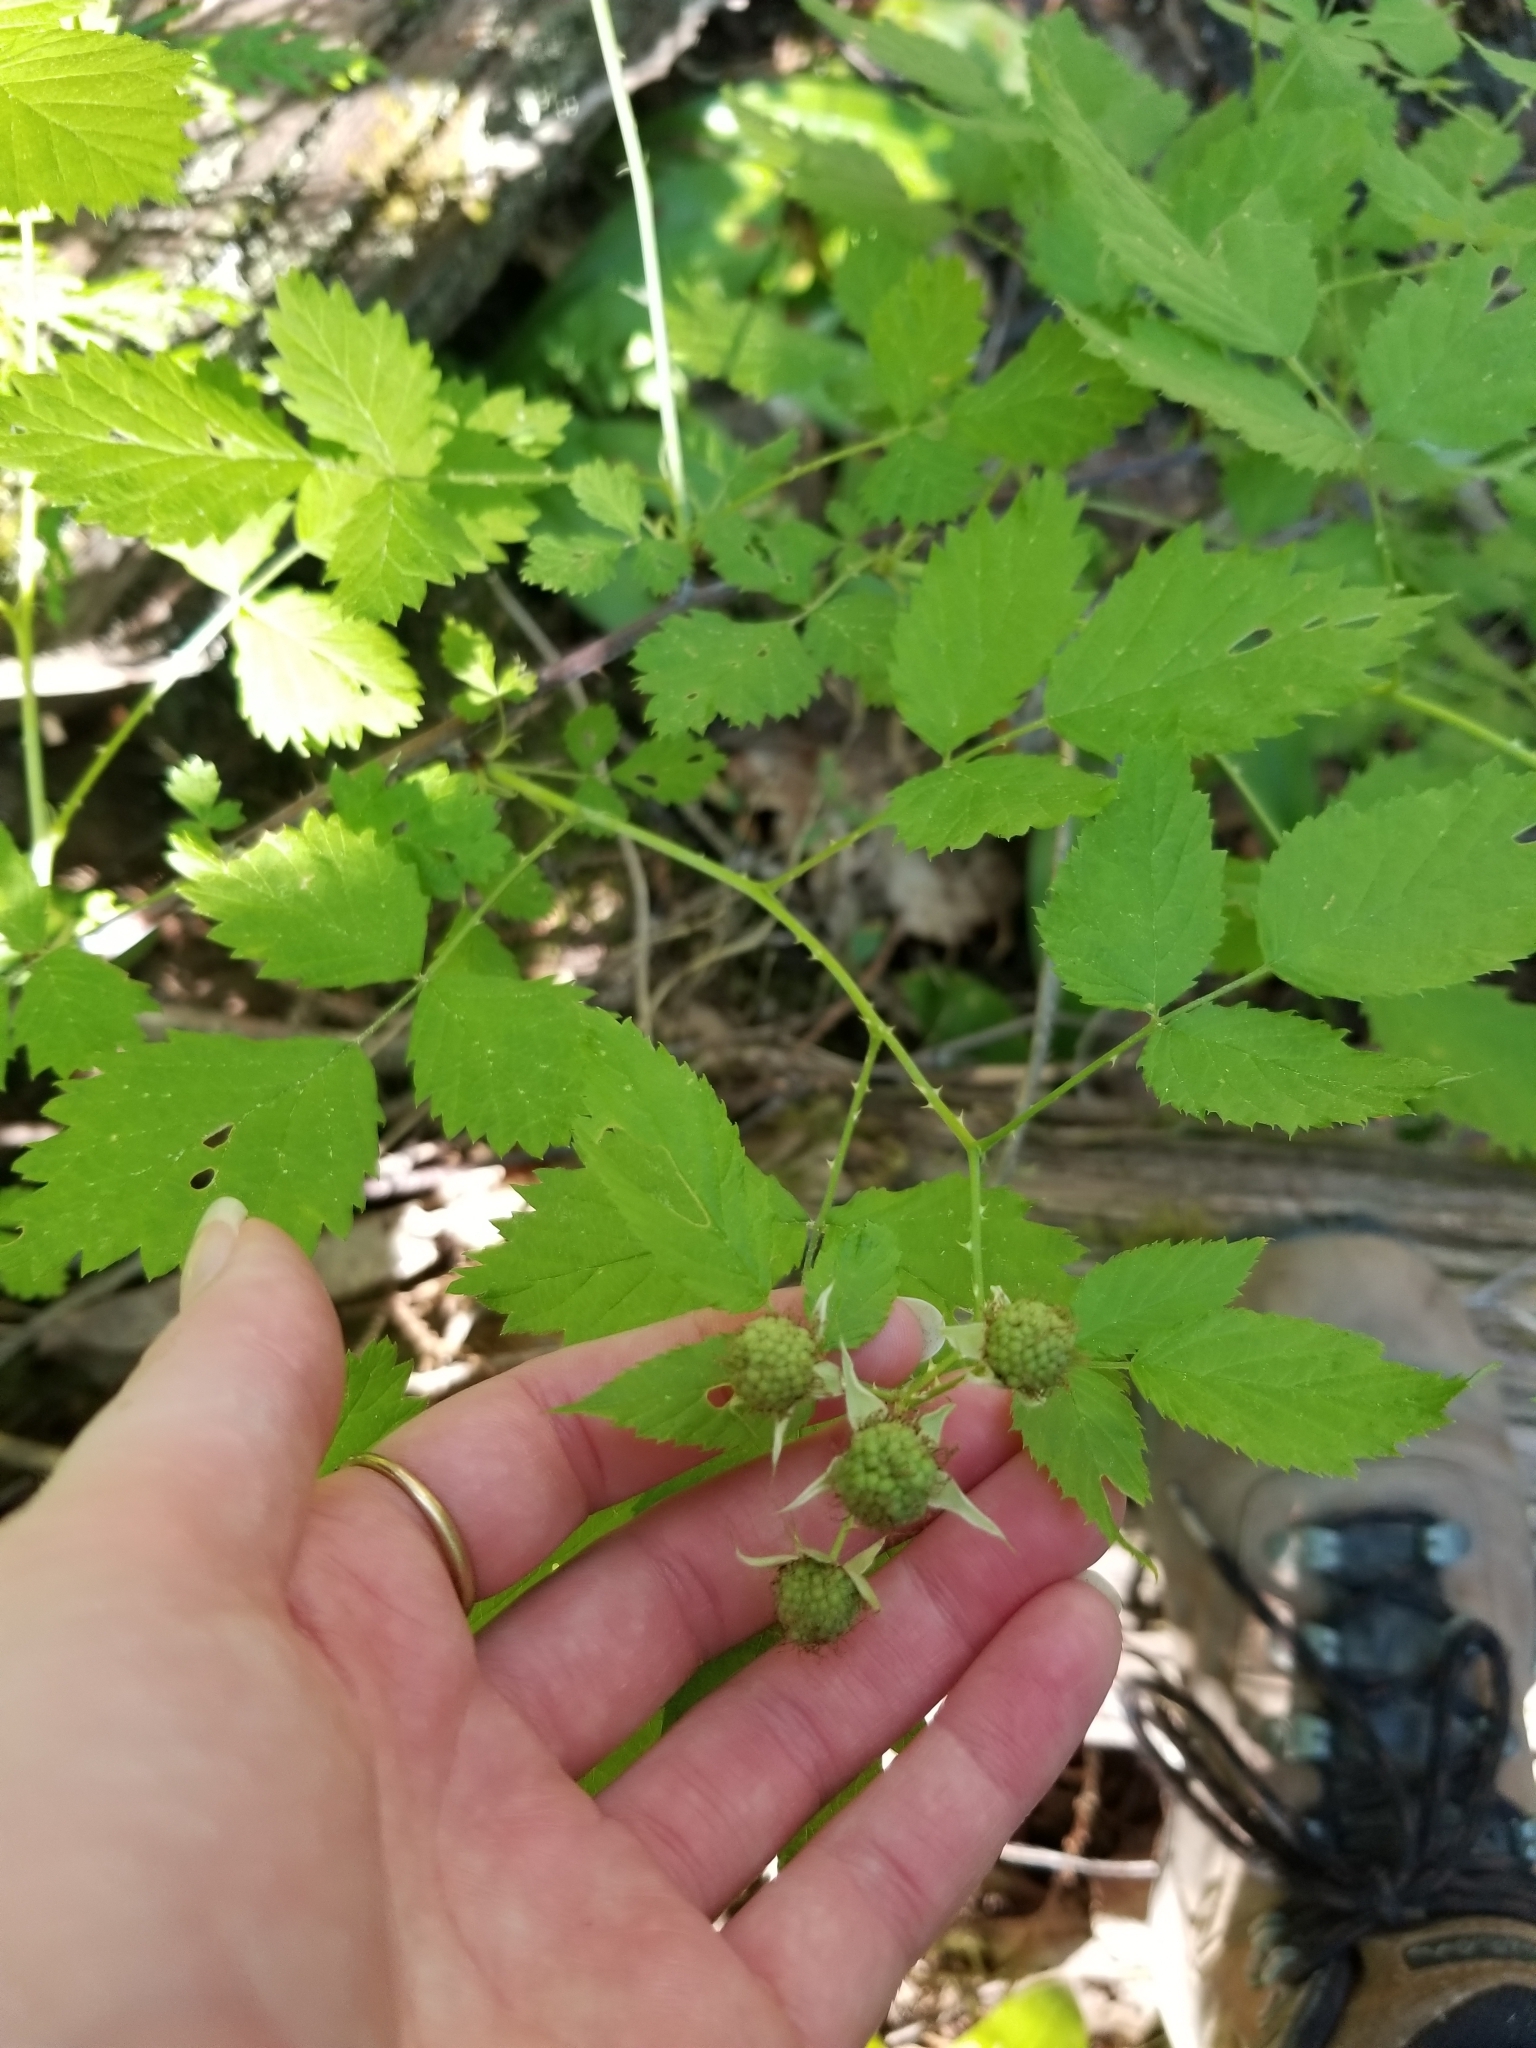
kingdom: Plantae
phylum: Tracheophyta
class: Magnoliopsida
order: Rosales
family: Rosaceae
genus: Rubus
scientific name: Rubus leucodermis
